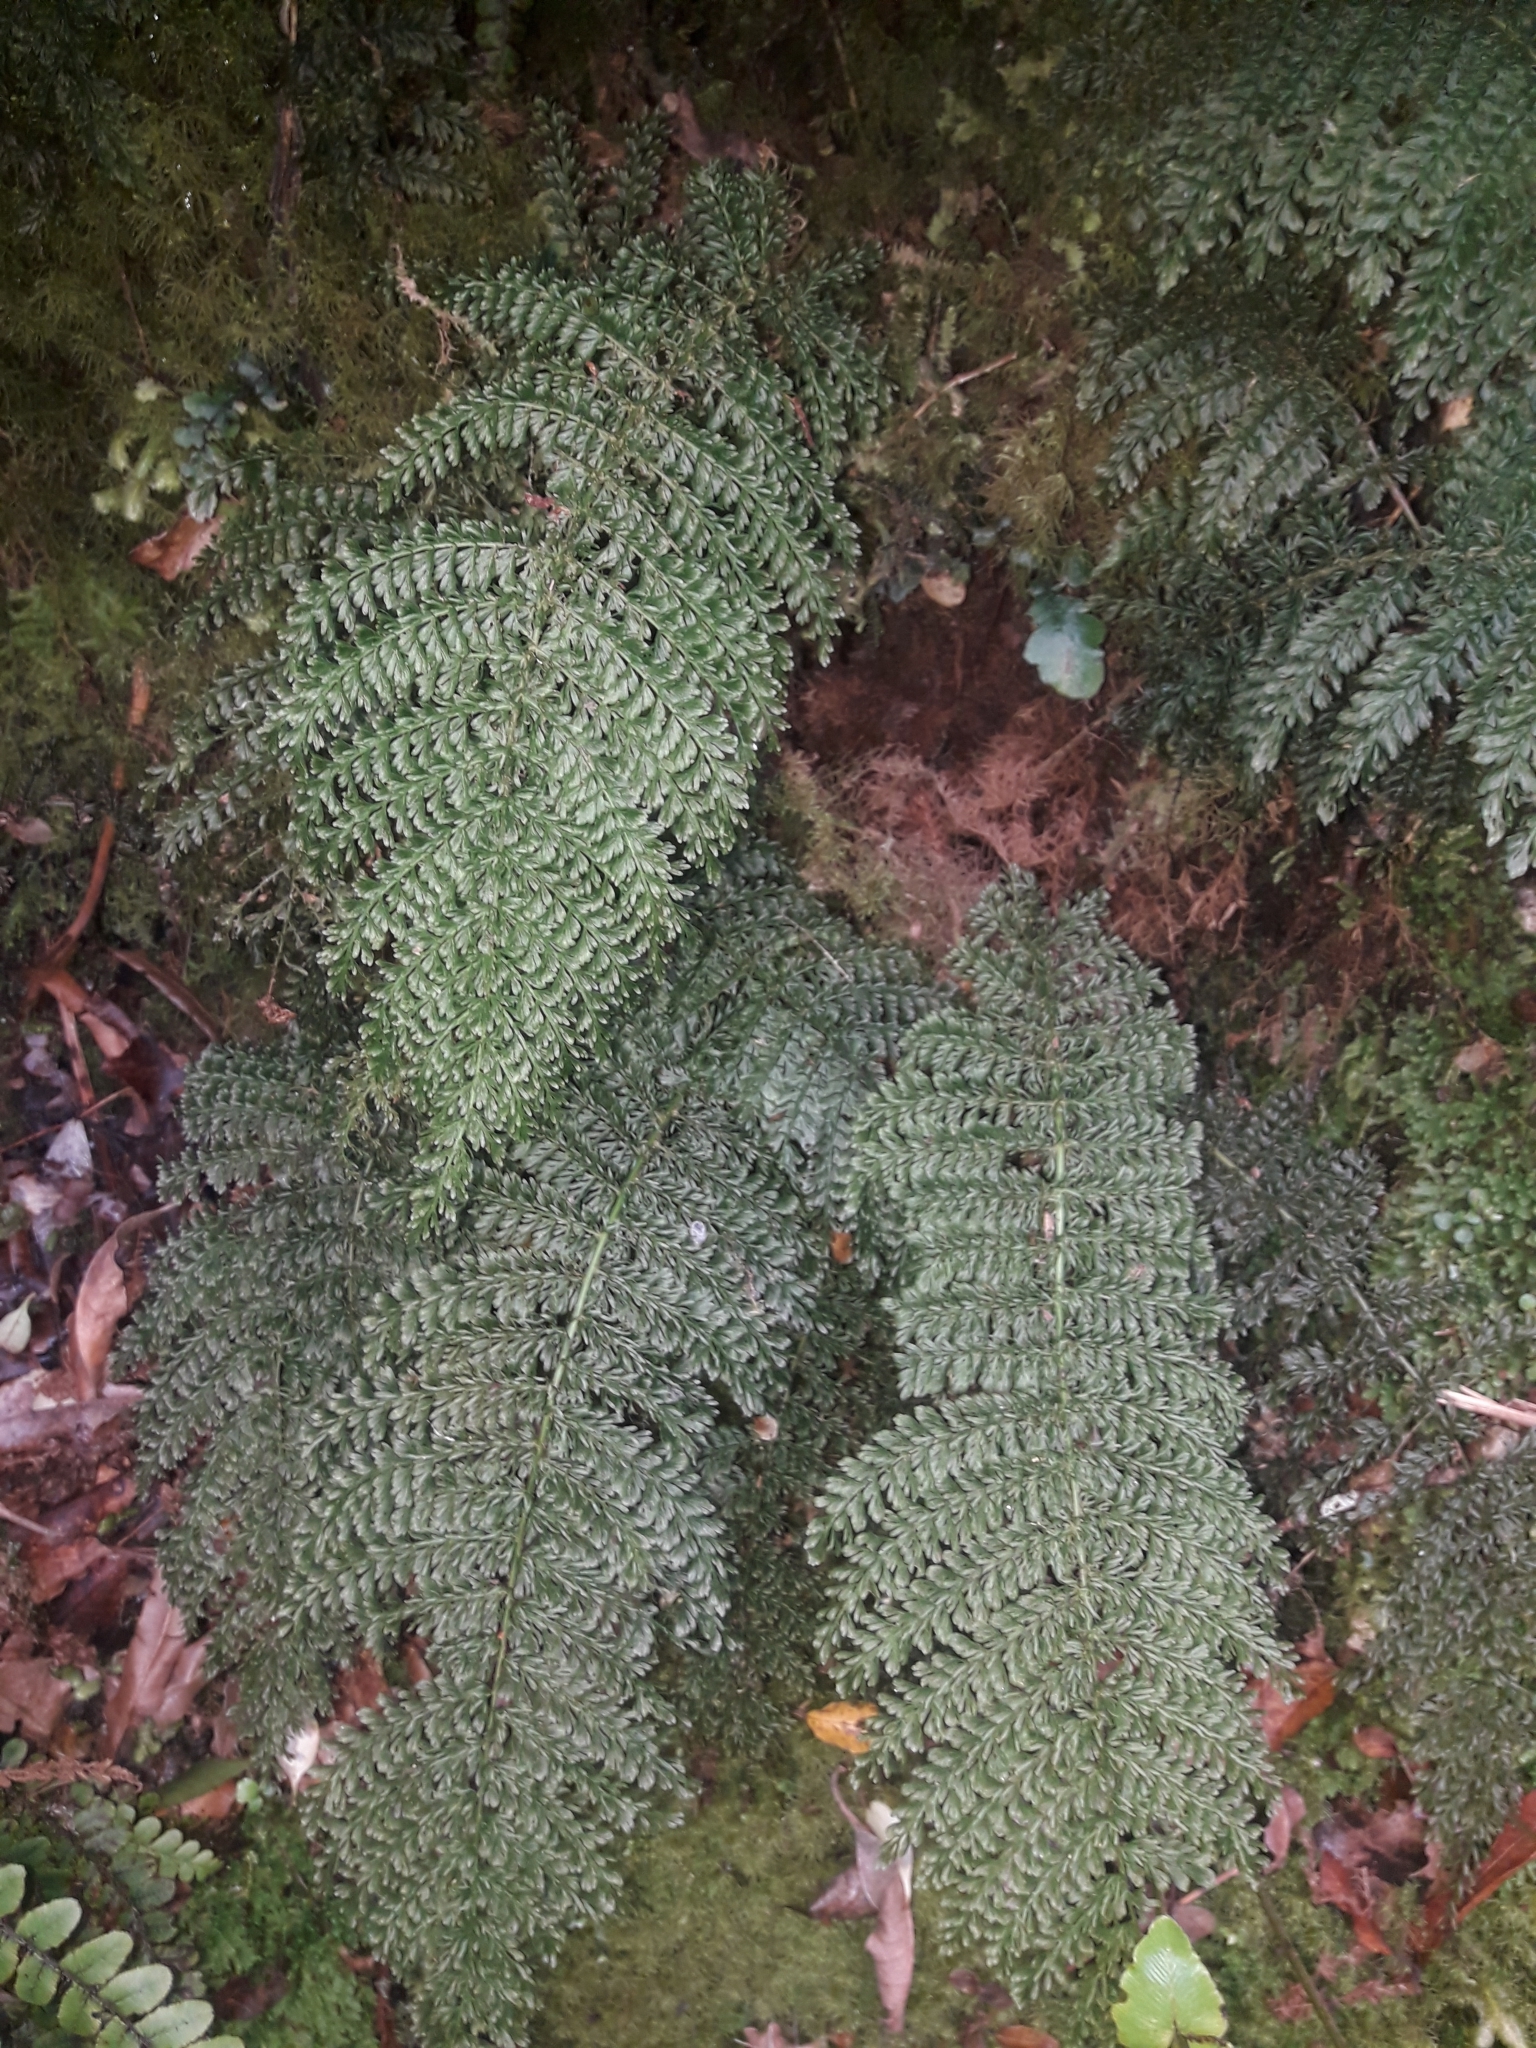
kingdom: Plantae
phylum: Tracheophyta
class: Polypodiopsida
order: Osmundales
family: Osmundaceae
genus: Leptopteris
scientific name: Leptopteris superba
